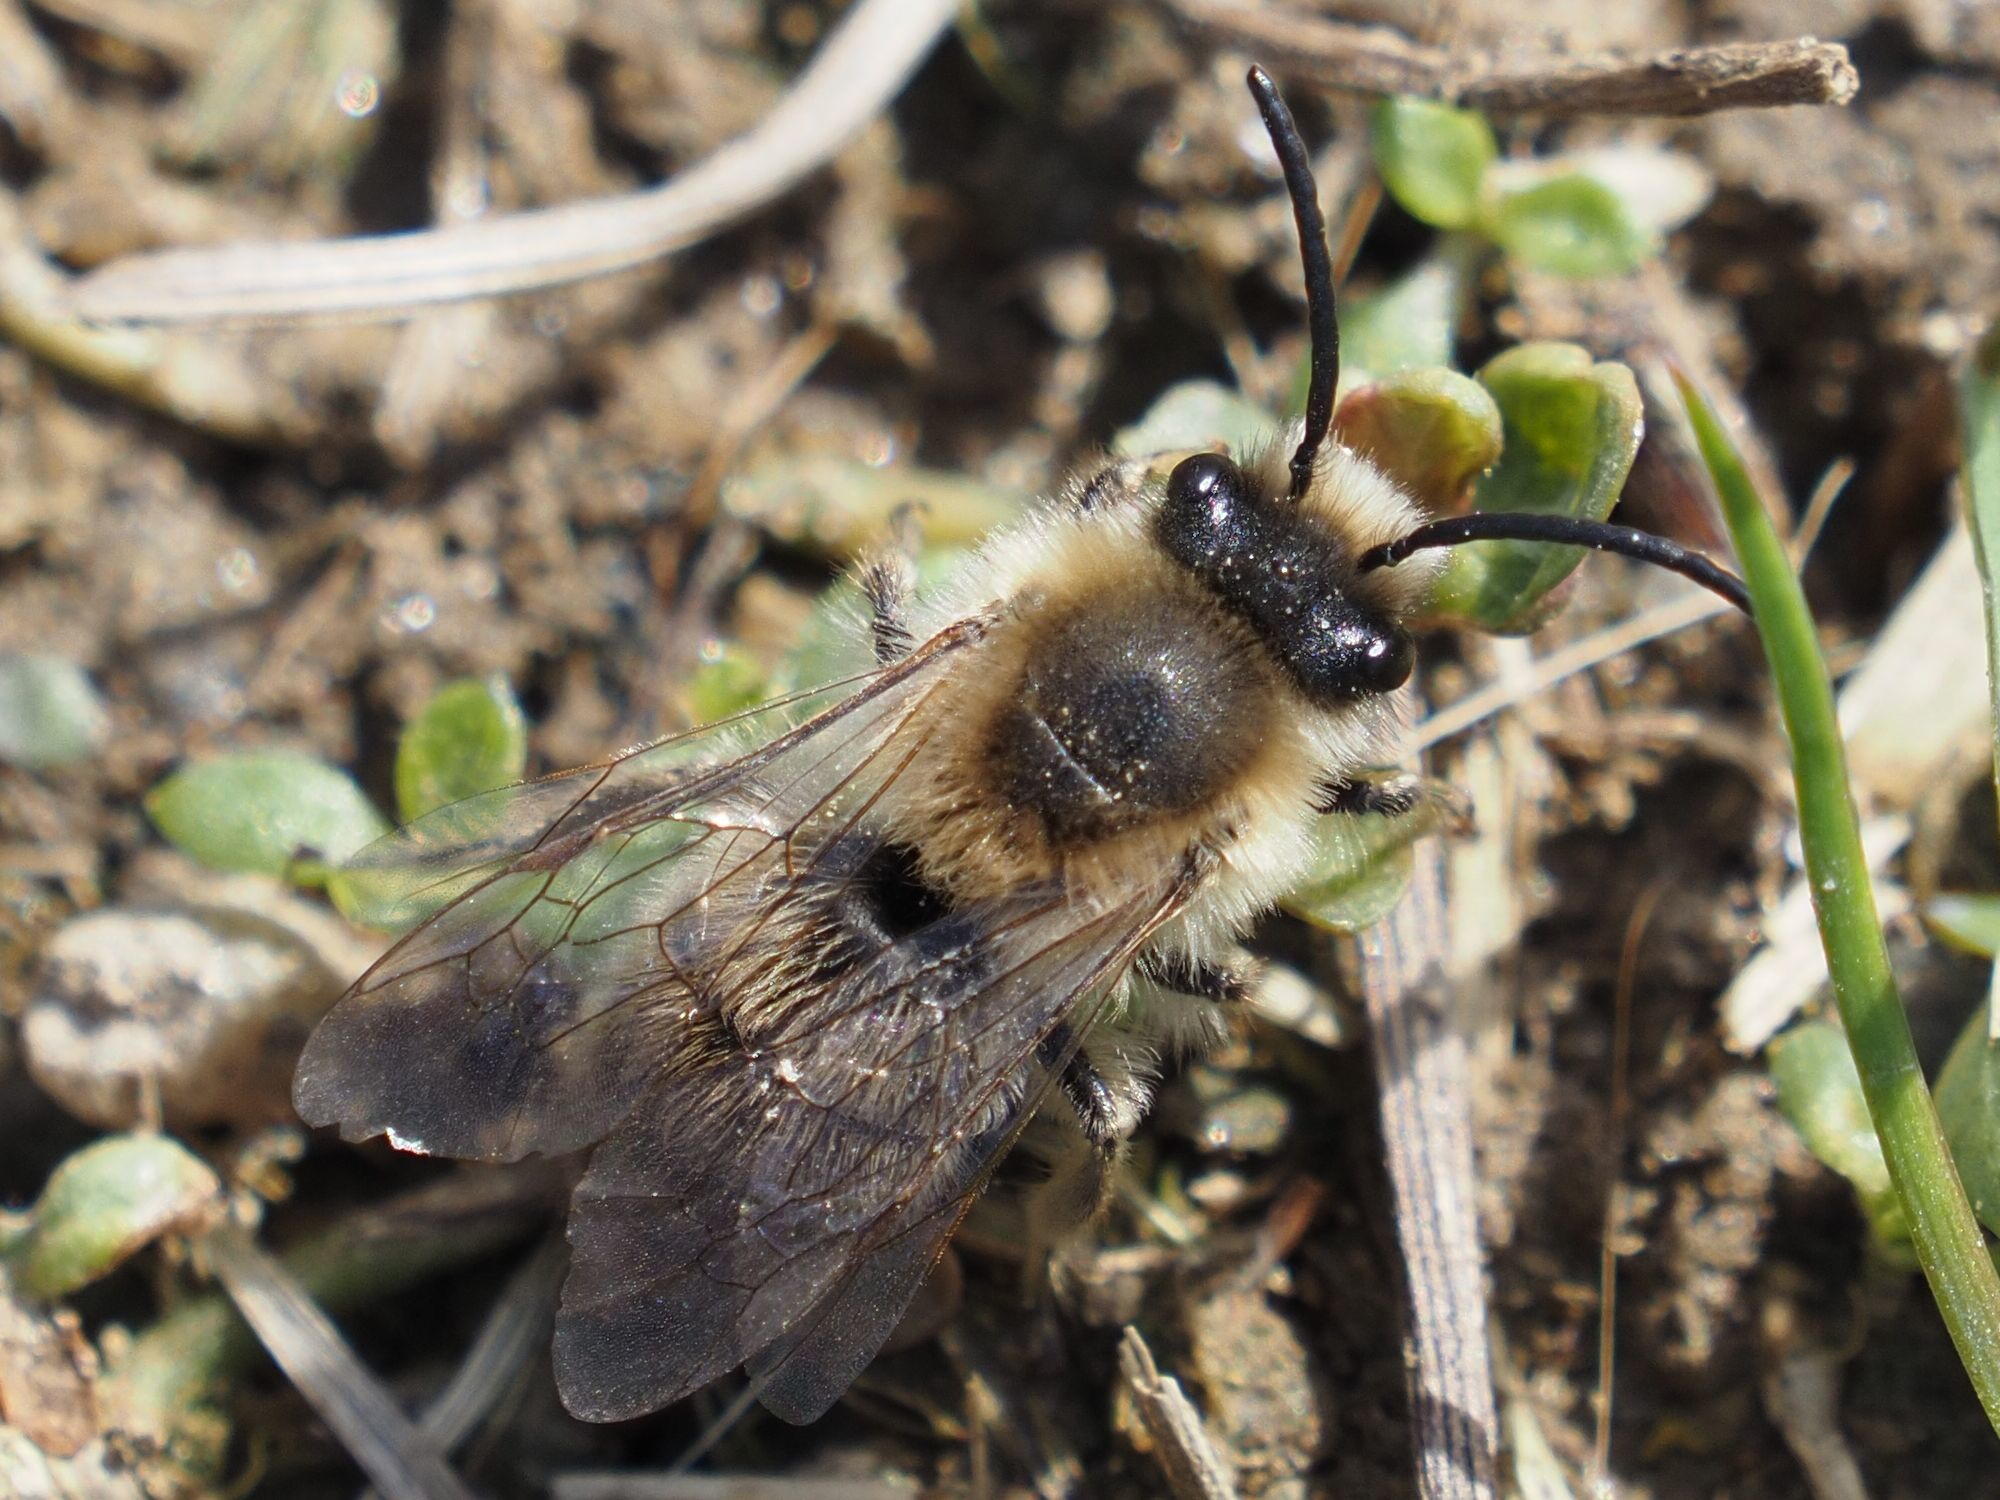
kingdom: Animalia
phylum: Arthropoda
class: Insecta
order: Hymenoptera
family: Colletidae
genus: Colletes
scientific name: Colletes cunicularius
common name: Early colletes
